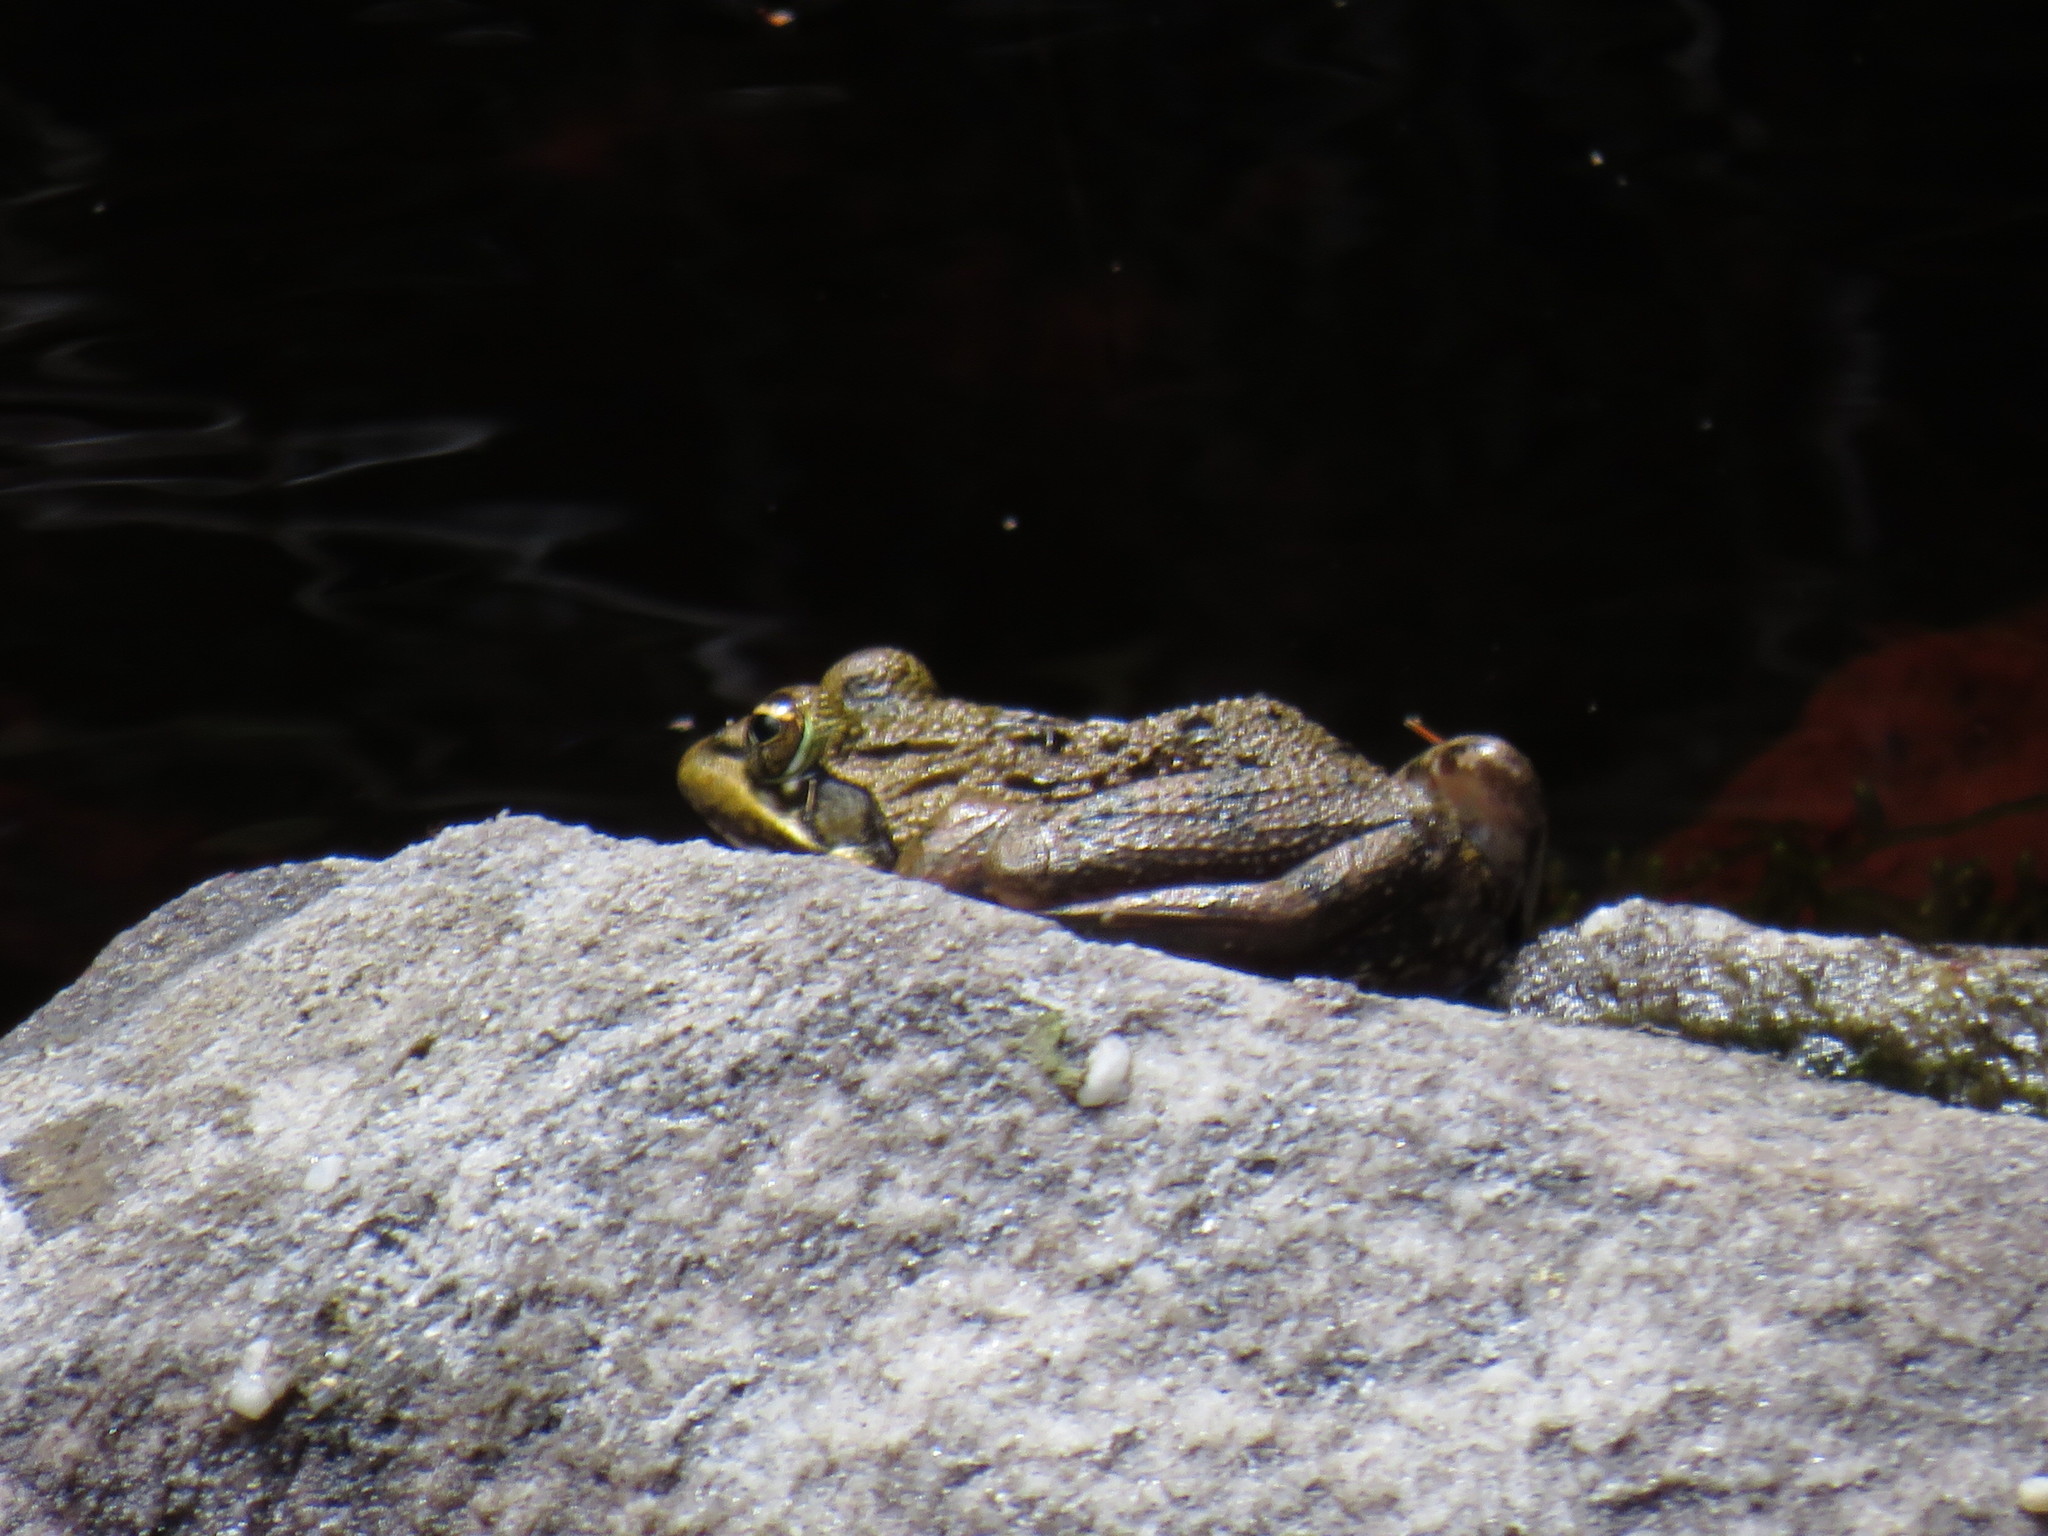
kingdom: Animalia
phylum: Chordata
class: Amphibia
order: Anura
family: Pyxicephalidae
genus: Amietia
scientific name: Amietia fuscigula
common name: Cape rana
